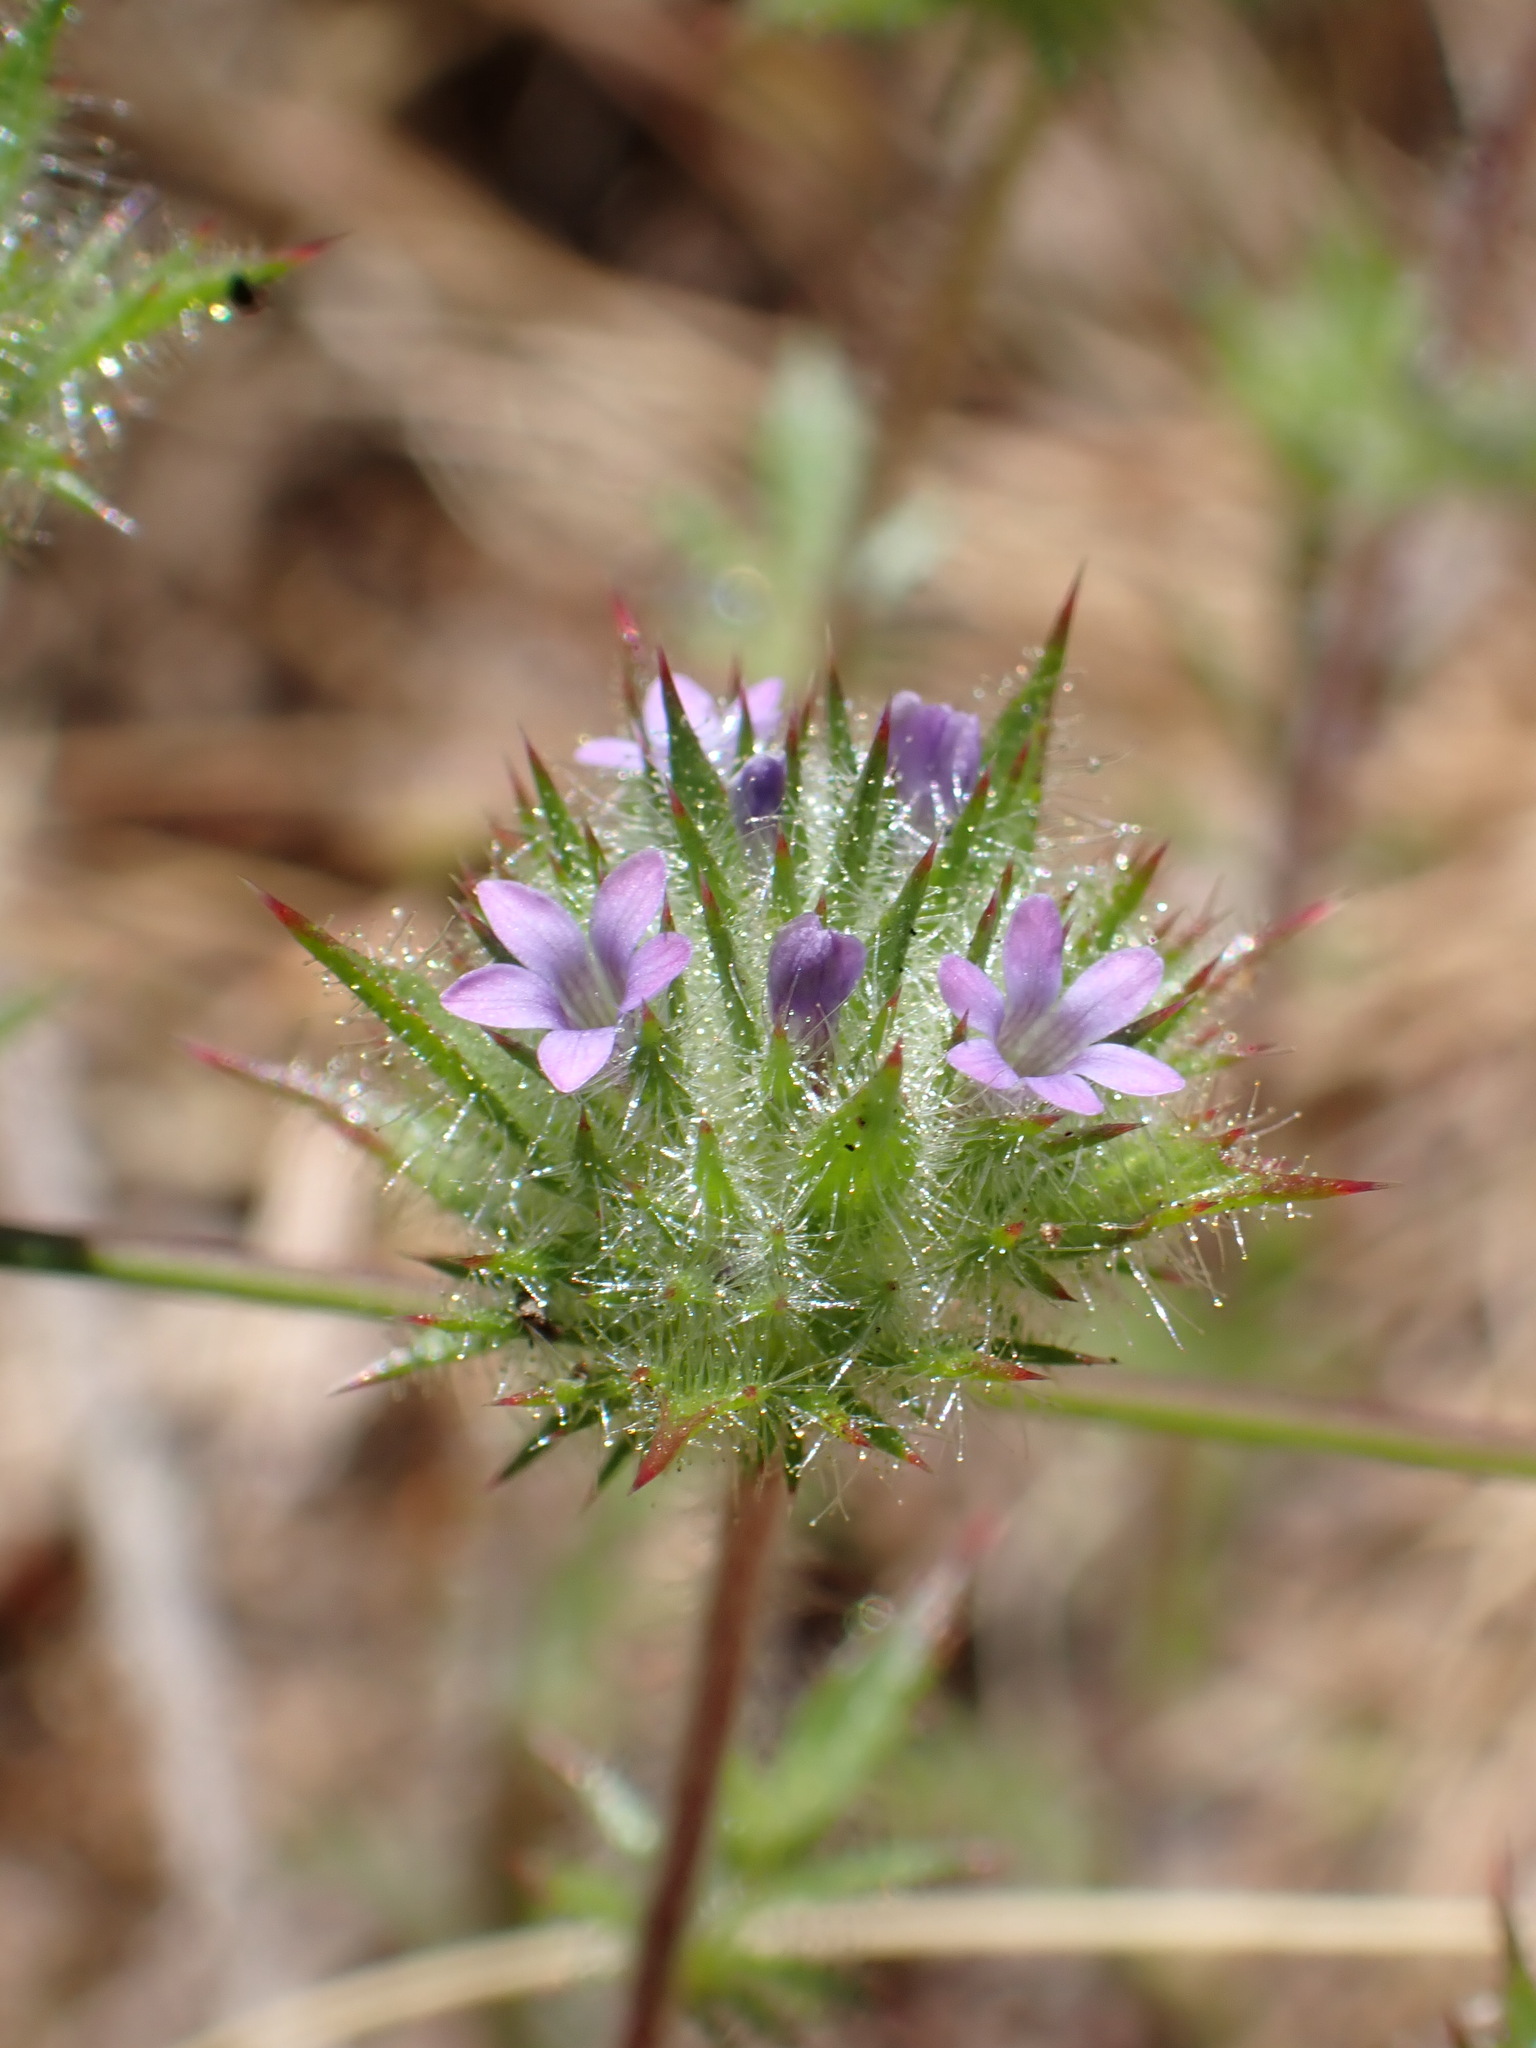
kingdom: Plantae
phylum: Tracheophyta
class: Magnoliopsida
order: Ericales
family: Polemoniaceae
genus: Navarretia
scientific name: Navarretia mellita
